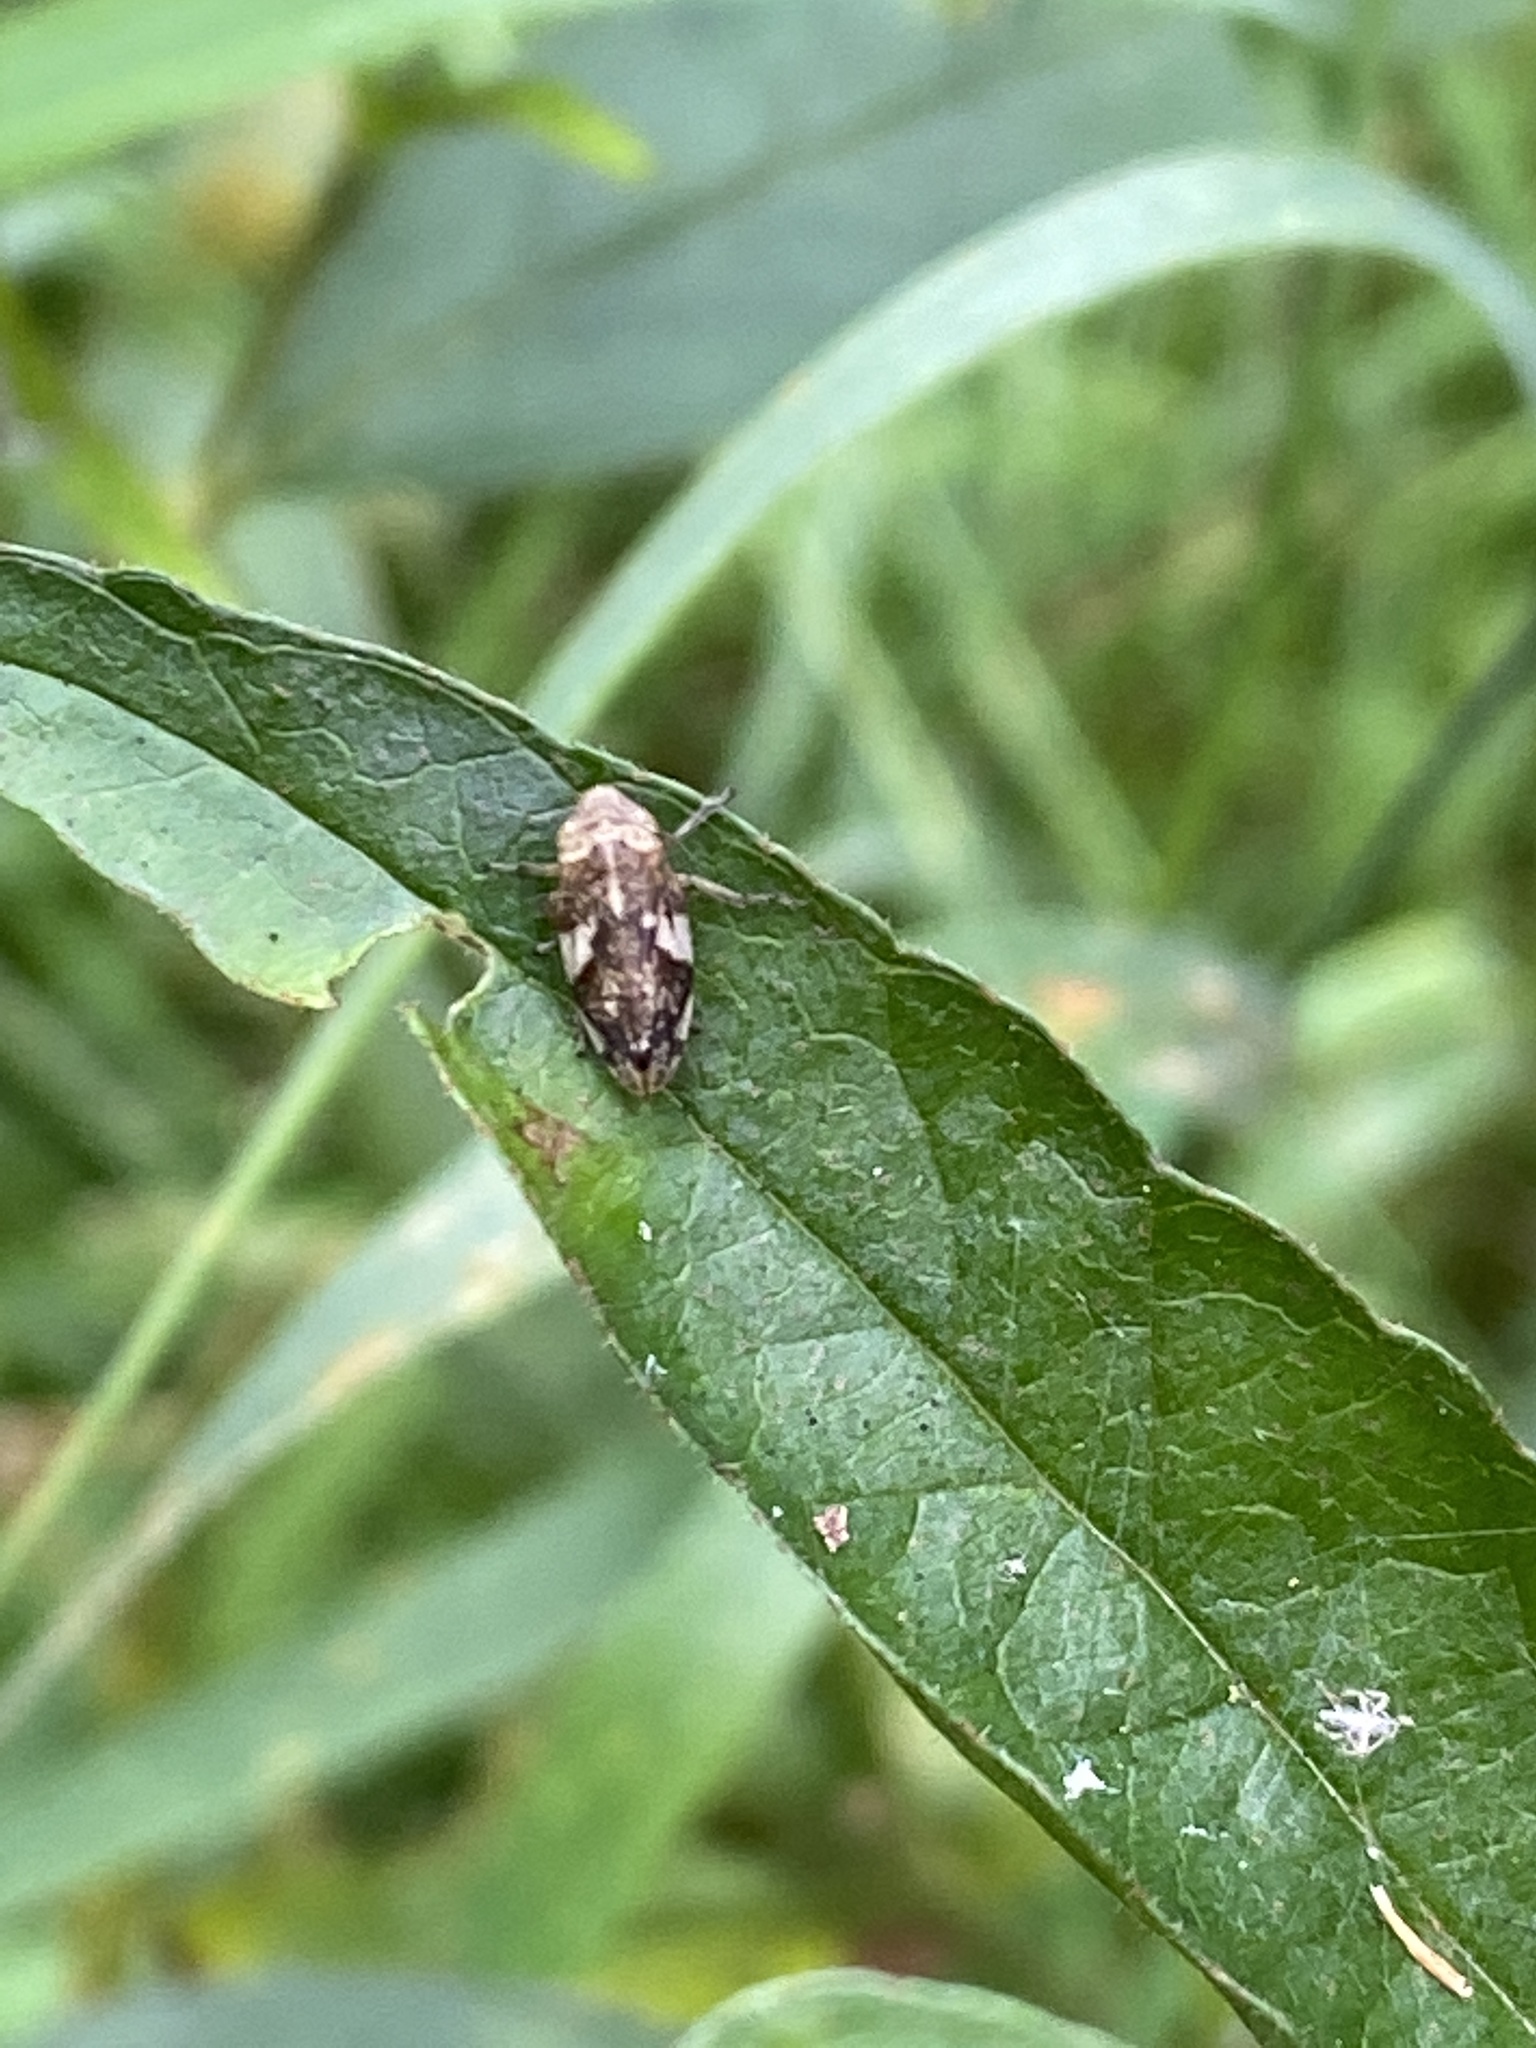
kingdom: Animalia
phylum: Arthropoda
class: Insecta
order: Hemiptera
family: Aphrophoridae
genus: Philaenus
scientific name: Philaenus spumarius
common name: Meadow spittlebug
